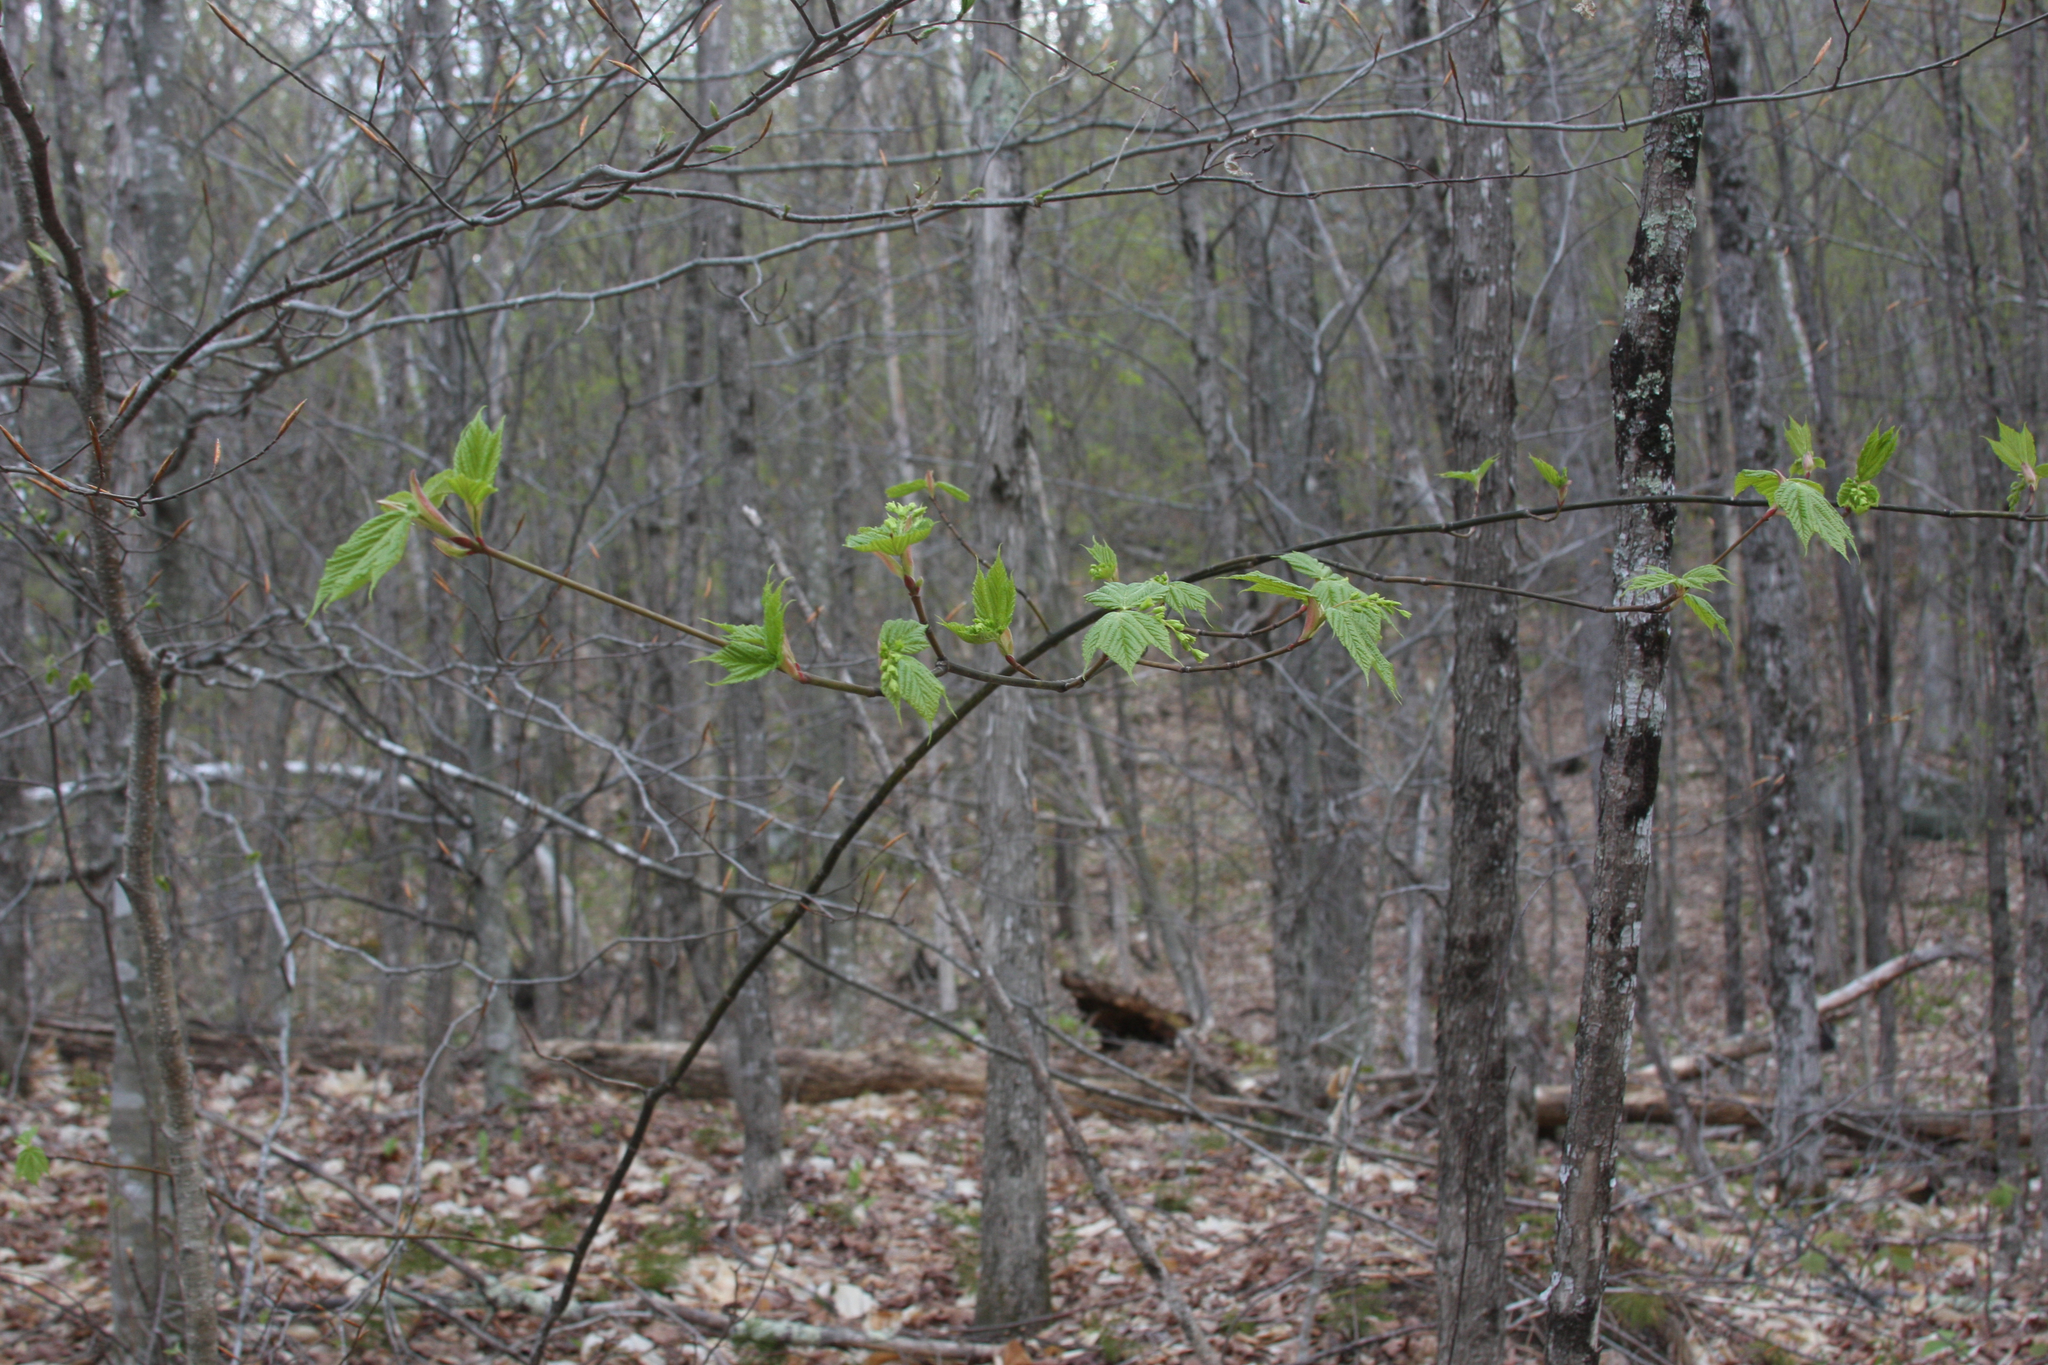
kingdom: Plantae
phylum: Tracheophyta
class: Magnoliopsida
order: Sapindales
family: Sapindaceae
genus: Acer
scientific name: Acer pensylvanicum
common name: Moosewood
